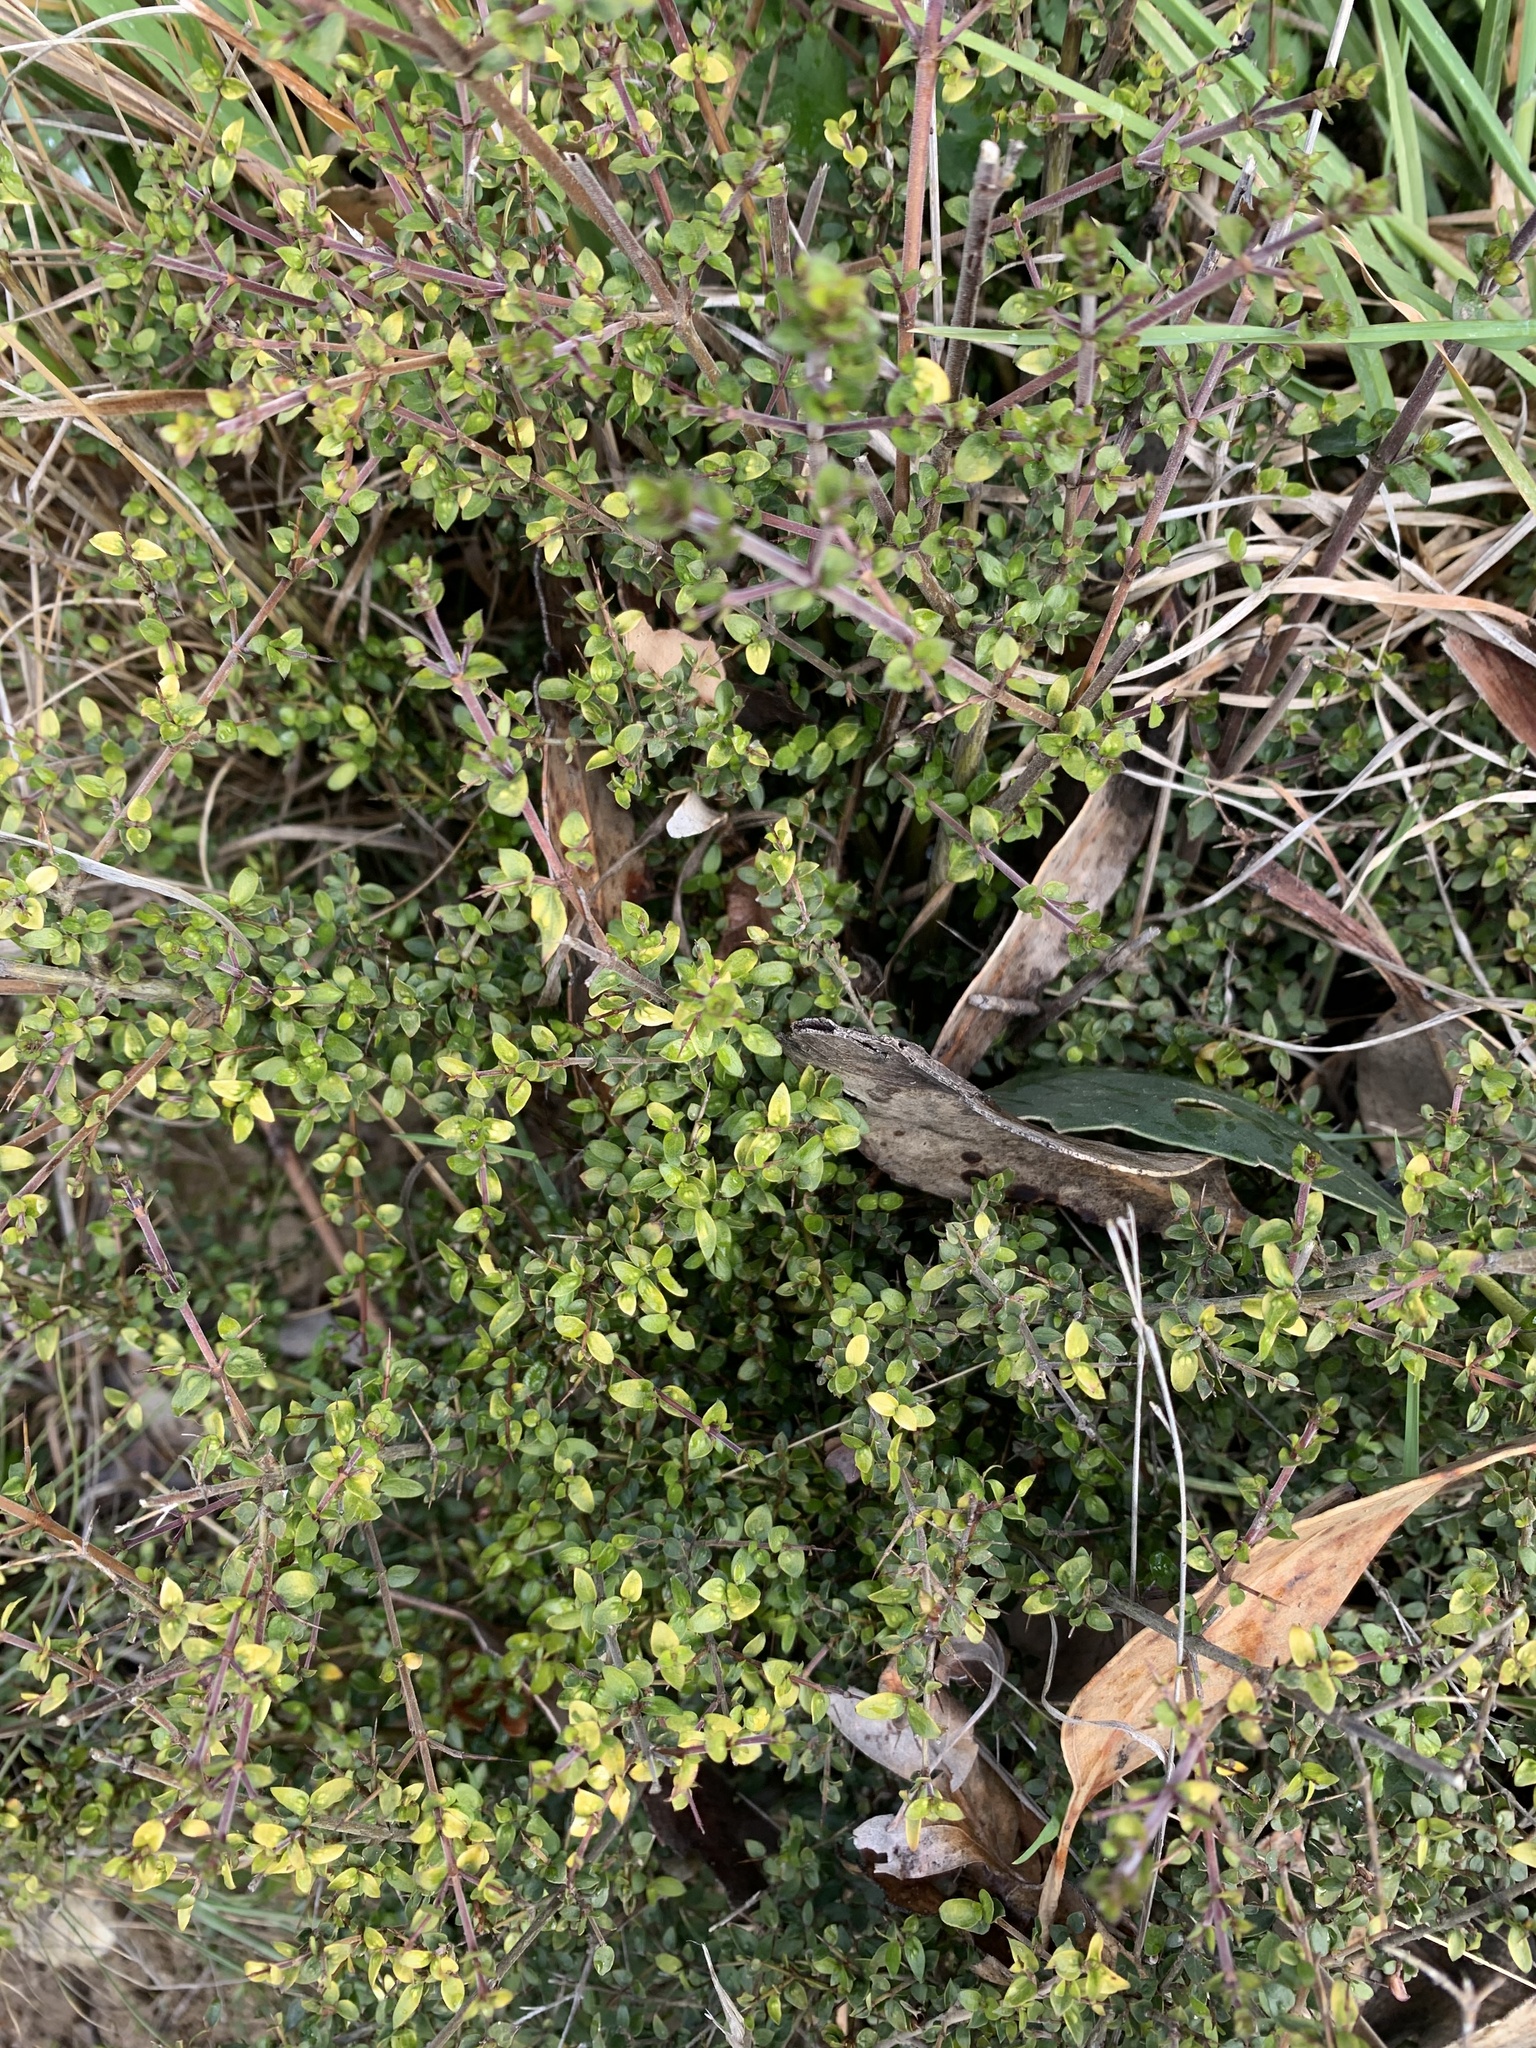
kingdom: Plantae
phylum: Tracheophyta
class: Magnoliopsida
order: Gentianales
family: Rubiaceae
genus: Coprosma
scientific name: Coprosma quadrifida
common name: Prickly currantbush
